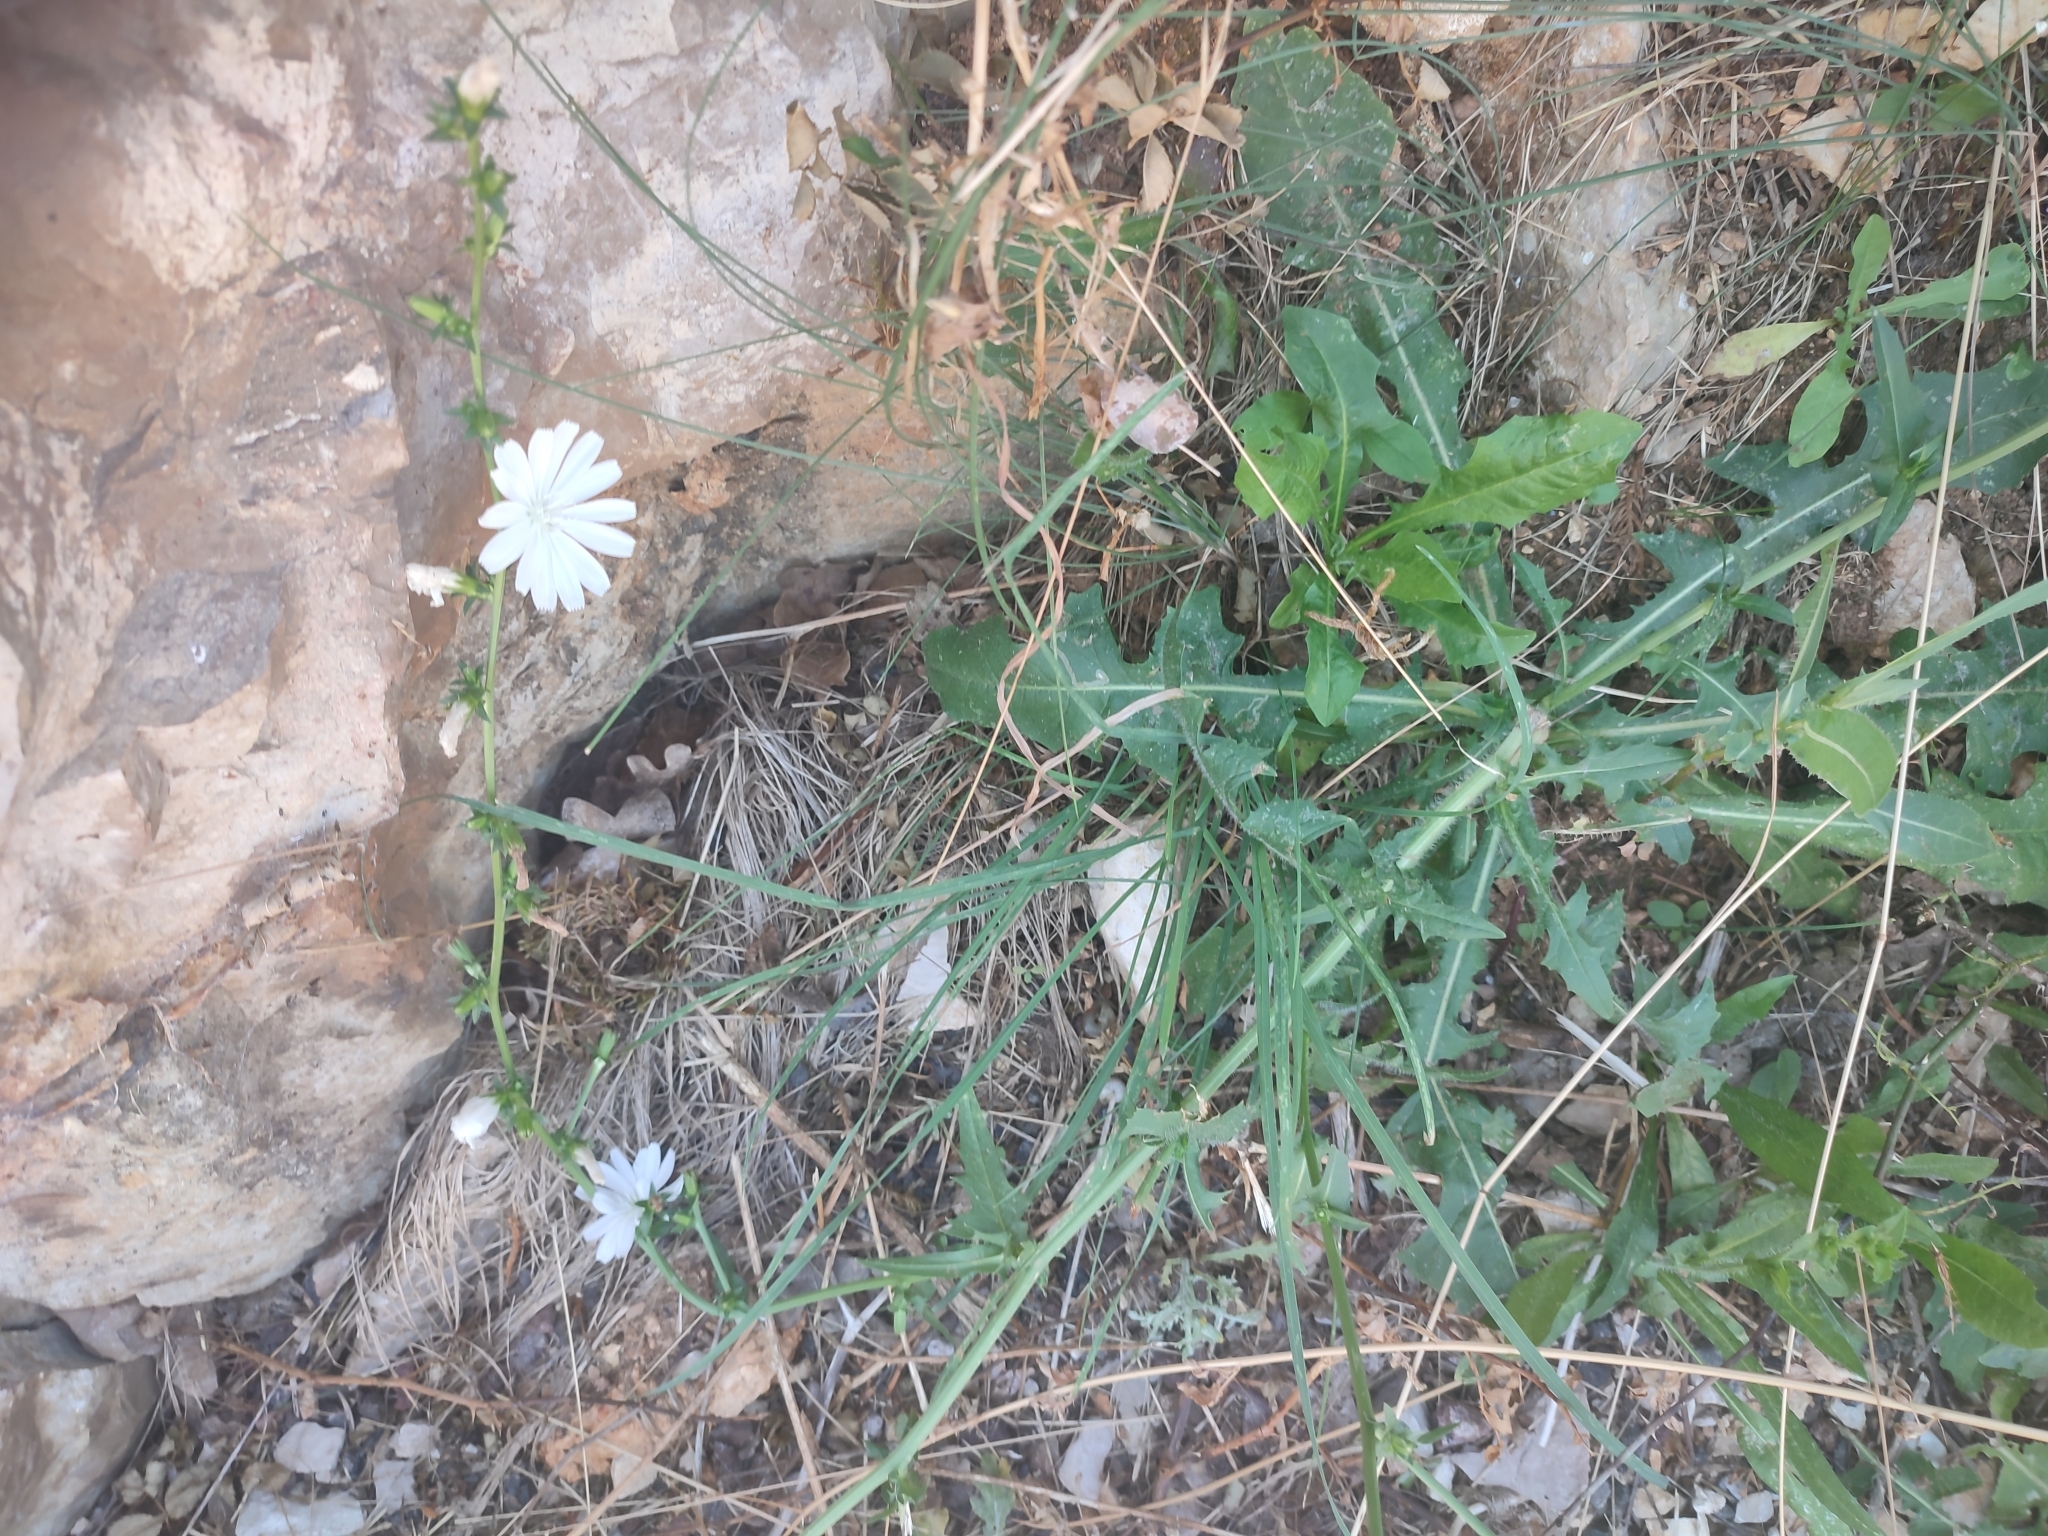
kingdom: Plantae
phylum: Tracheophyta
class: Magnoliopsida
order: Asterales
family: Asteraceae
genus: Cichorium
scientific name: Cichorium intybus
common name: Chicory
